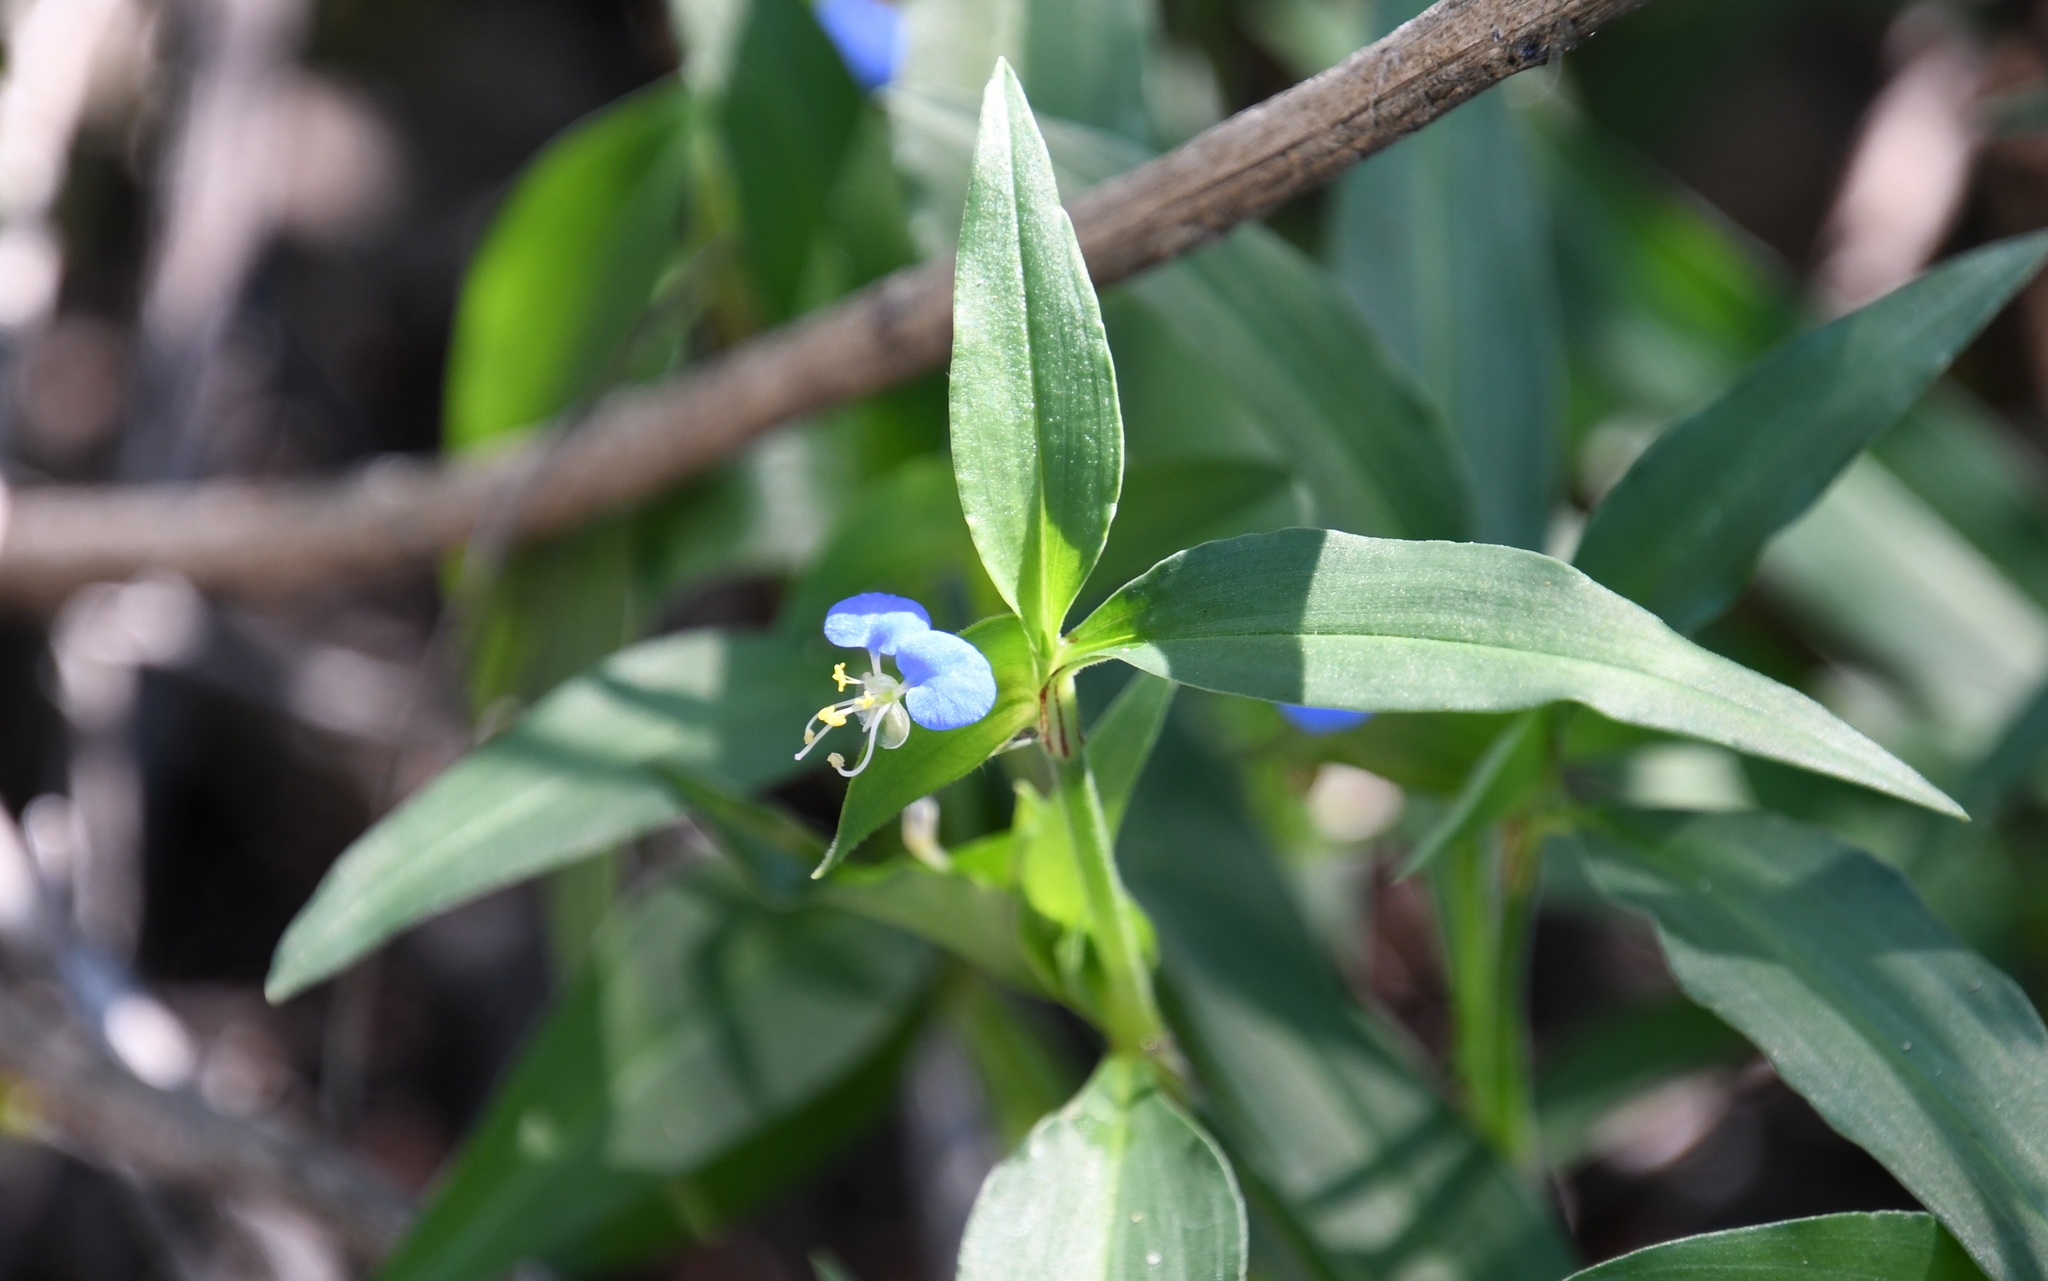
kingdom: Plantae
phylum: Tracheophyta
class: Liliopsida
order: Commelinales
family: Commelinaceae
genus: Commelina
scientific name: Commelina erecta
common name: Blousel blommetjie
